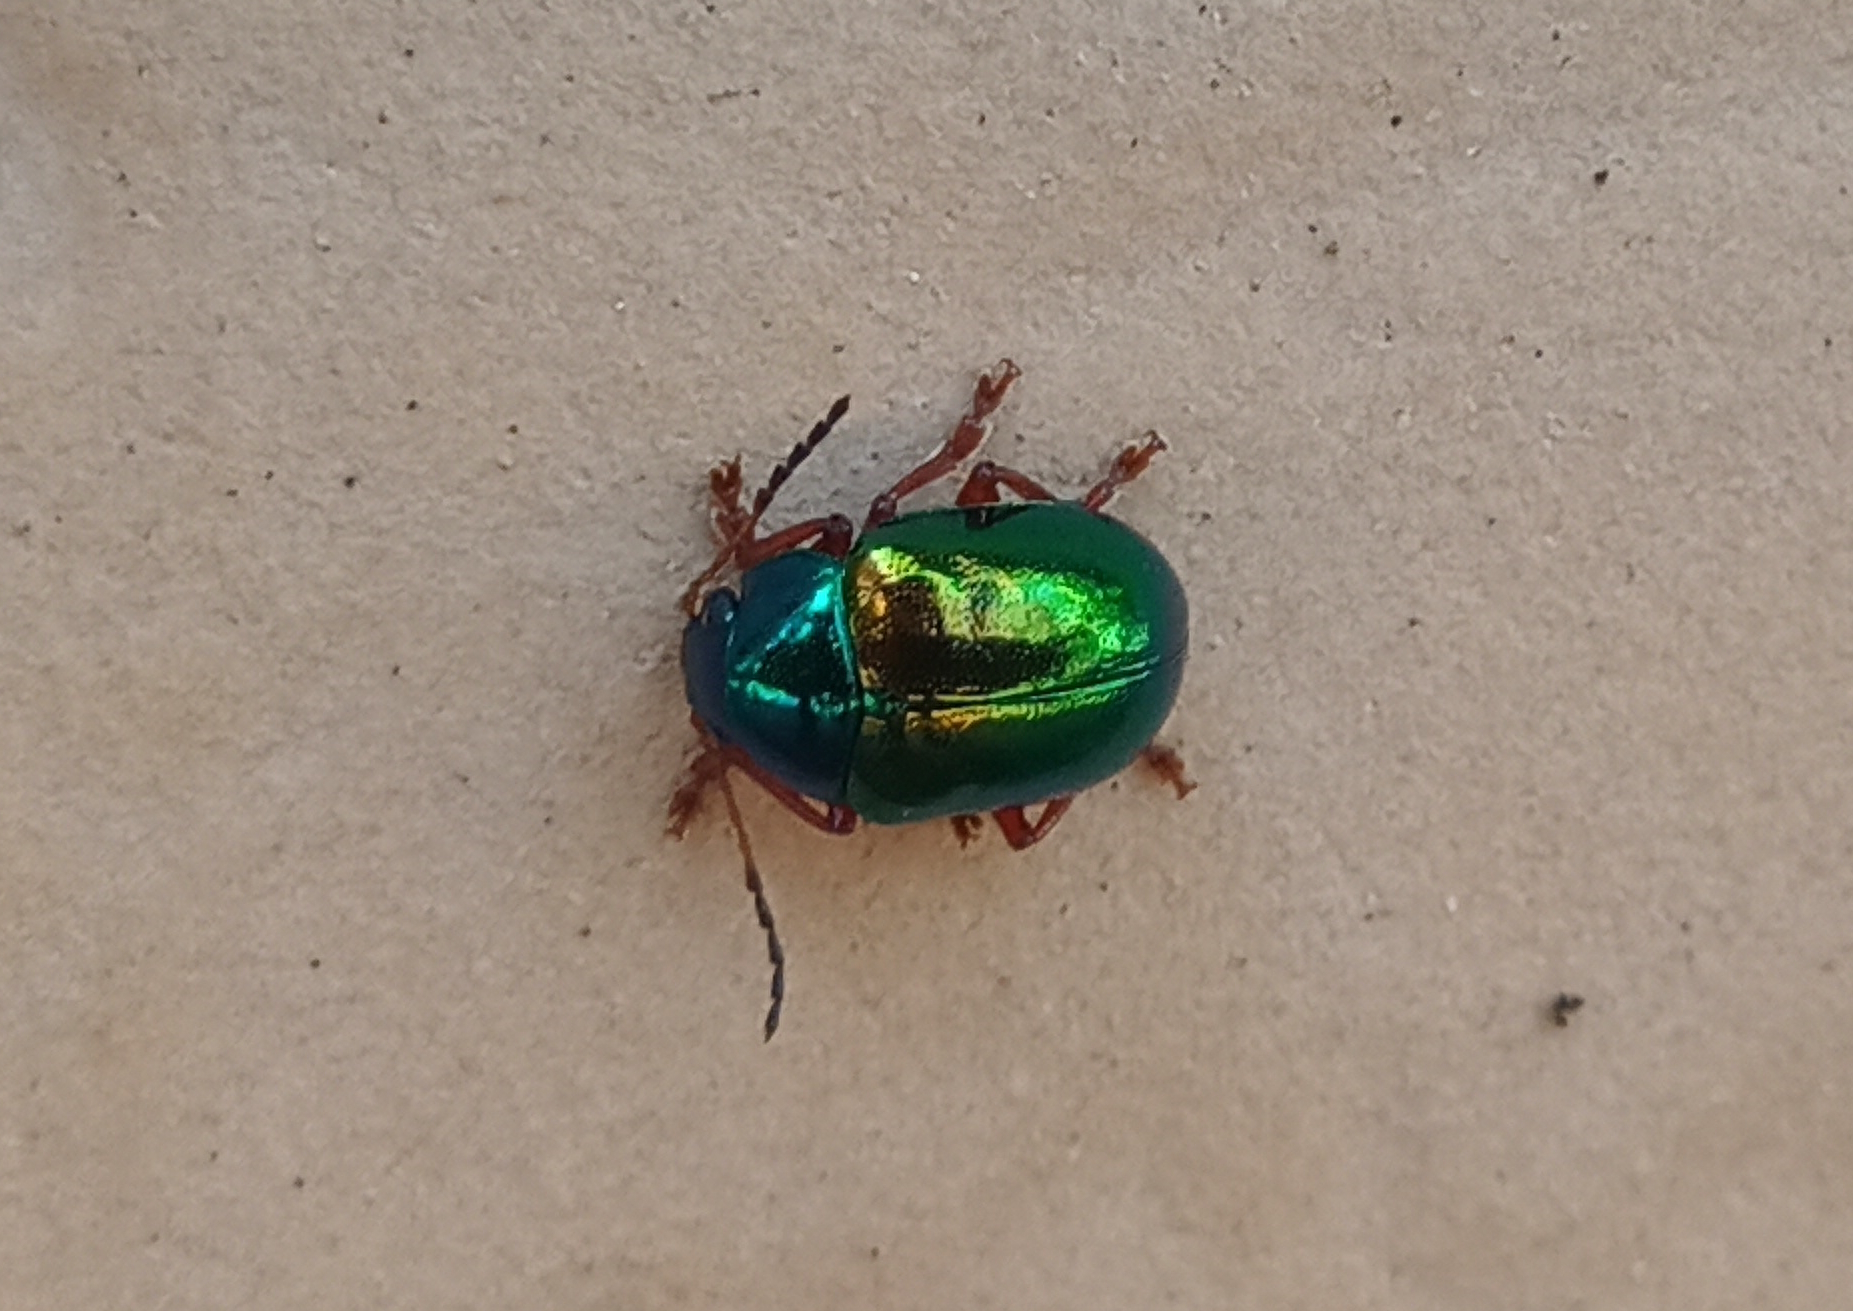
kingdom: Animalia
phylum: Arthropoda
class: Insecta
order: Coleoptera
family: Chrysomelidae
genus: Iphimeis
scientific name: Iphimeis
